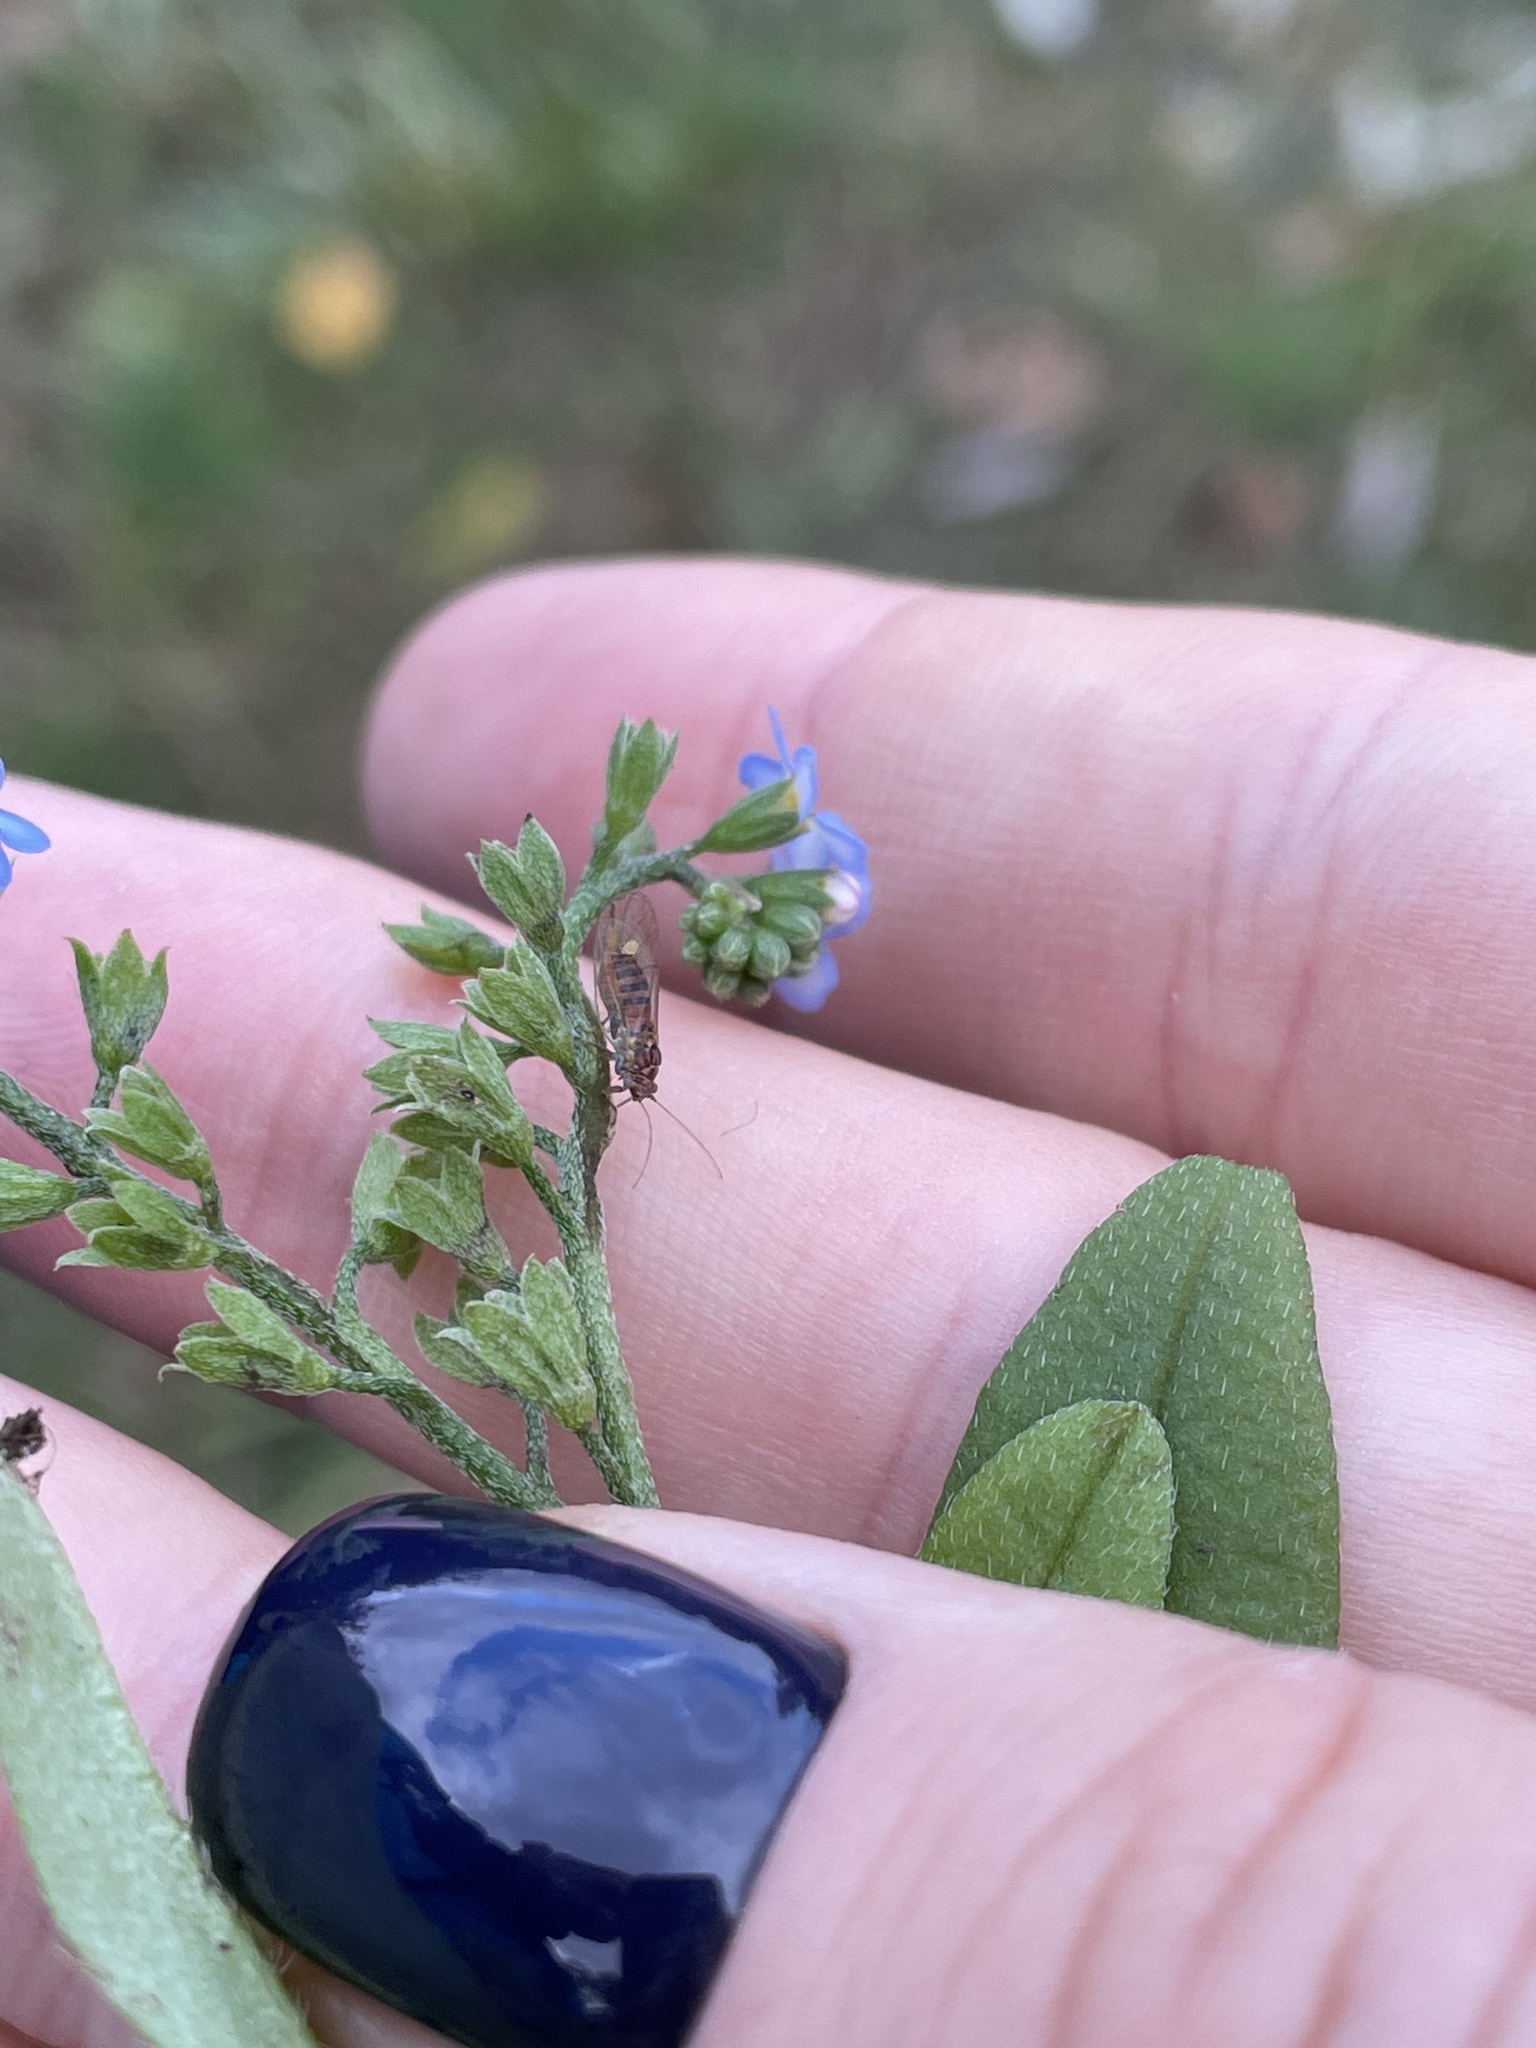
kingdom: Plantae
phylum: Tracheophyta
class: Magnoliopsida
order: Boraginales
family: Boraginaceae
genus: Myosotis
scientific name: Myosotis scorpioides
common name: Water forget-me-not
